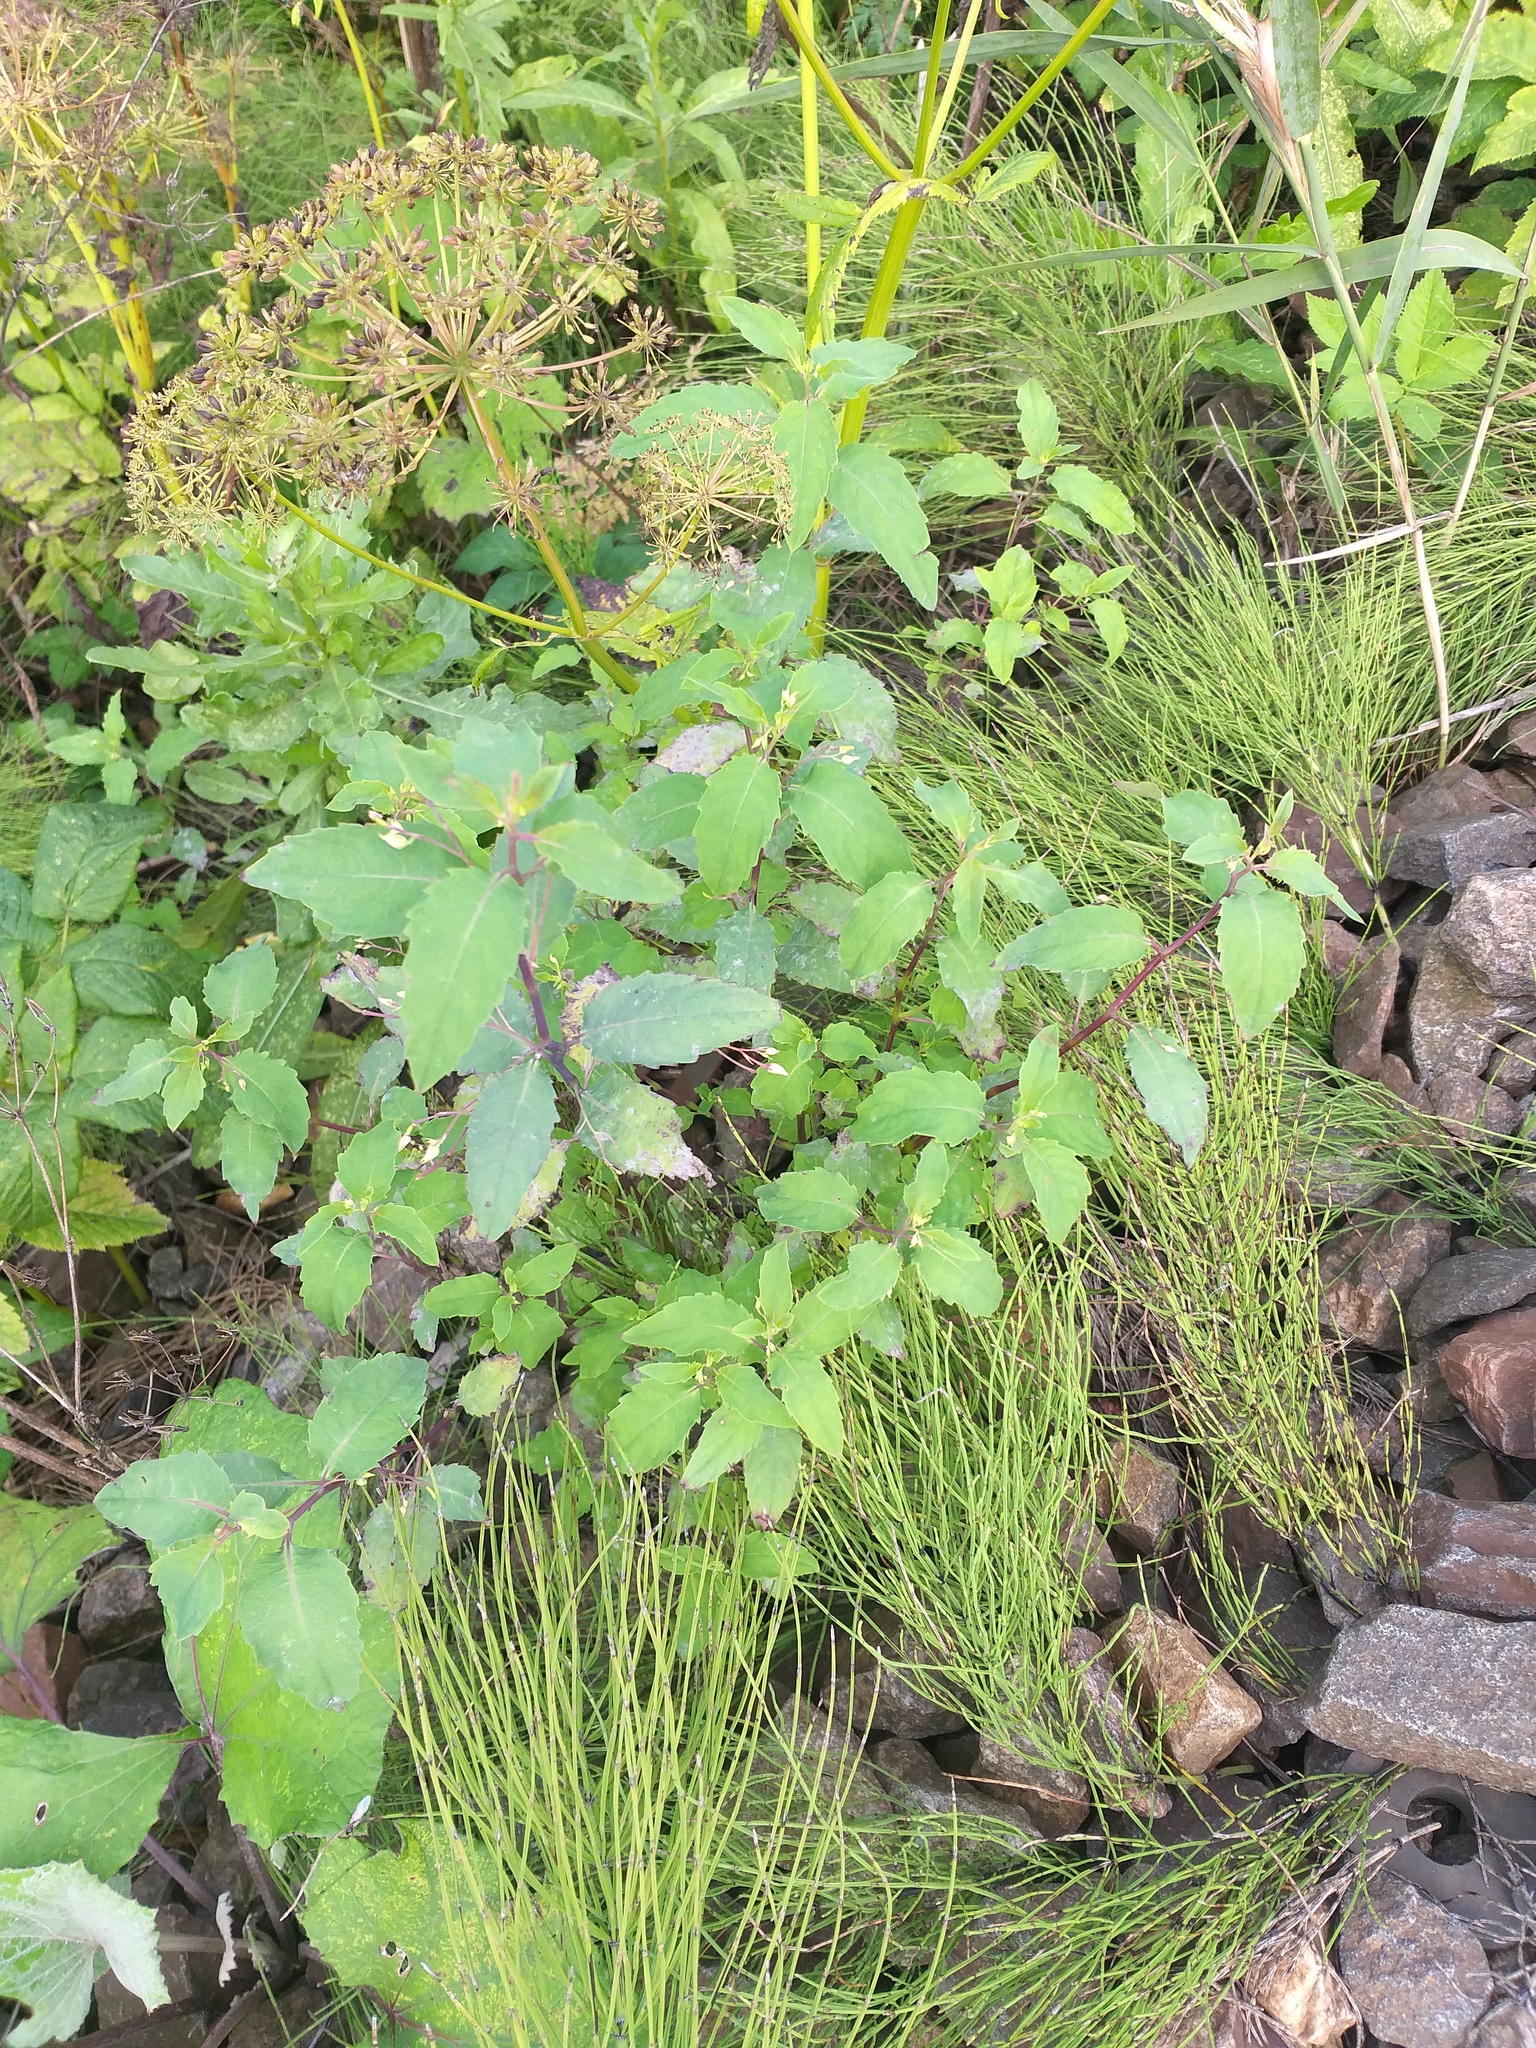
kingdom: Plantae
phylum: Tracheophyta
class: Magnoliopsida
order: Ericales
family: Balsaminaceae
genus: Impatiens
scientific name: Impatiens noli-tangere
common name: Touch-me-not balsam
